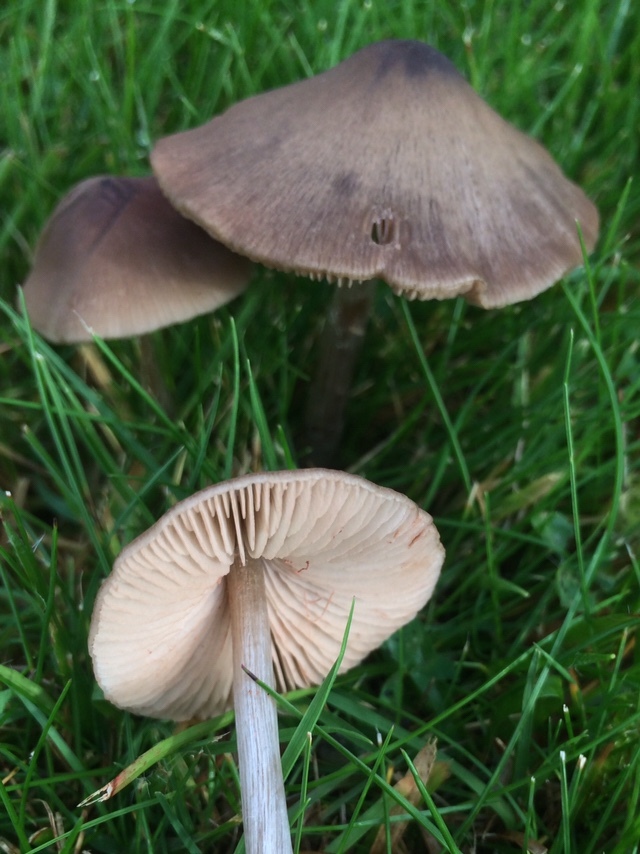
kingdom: Fungi
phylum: Basidiomycota
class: Agaricomycetes
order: Agaricales
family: Entolomataceae
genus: Entoloma
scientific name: Entoloma conferendum
